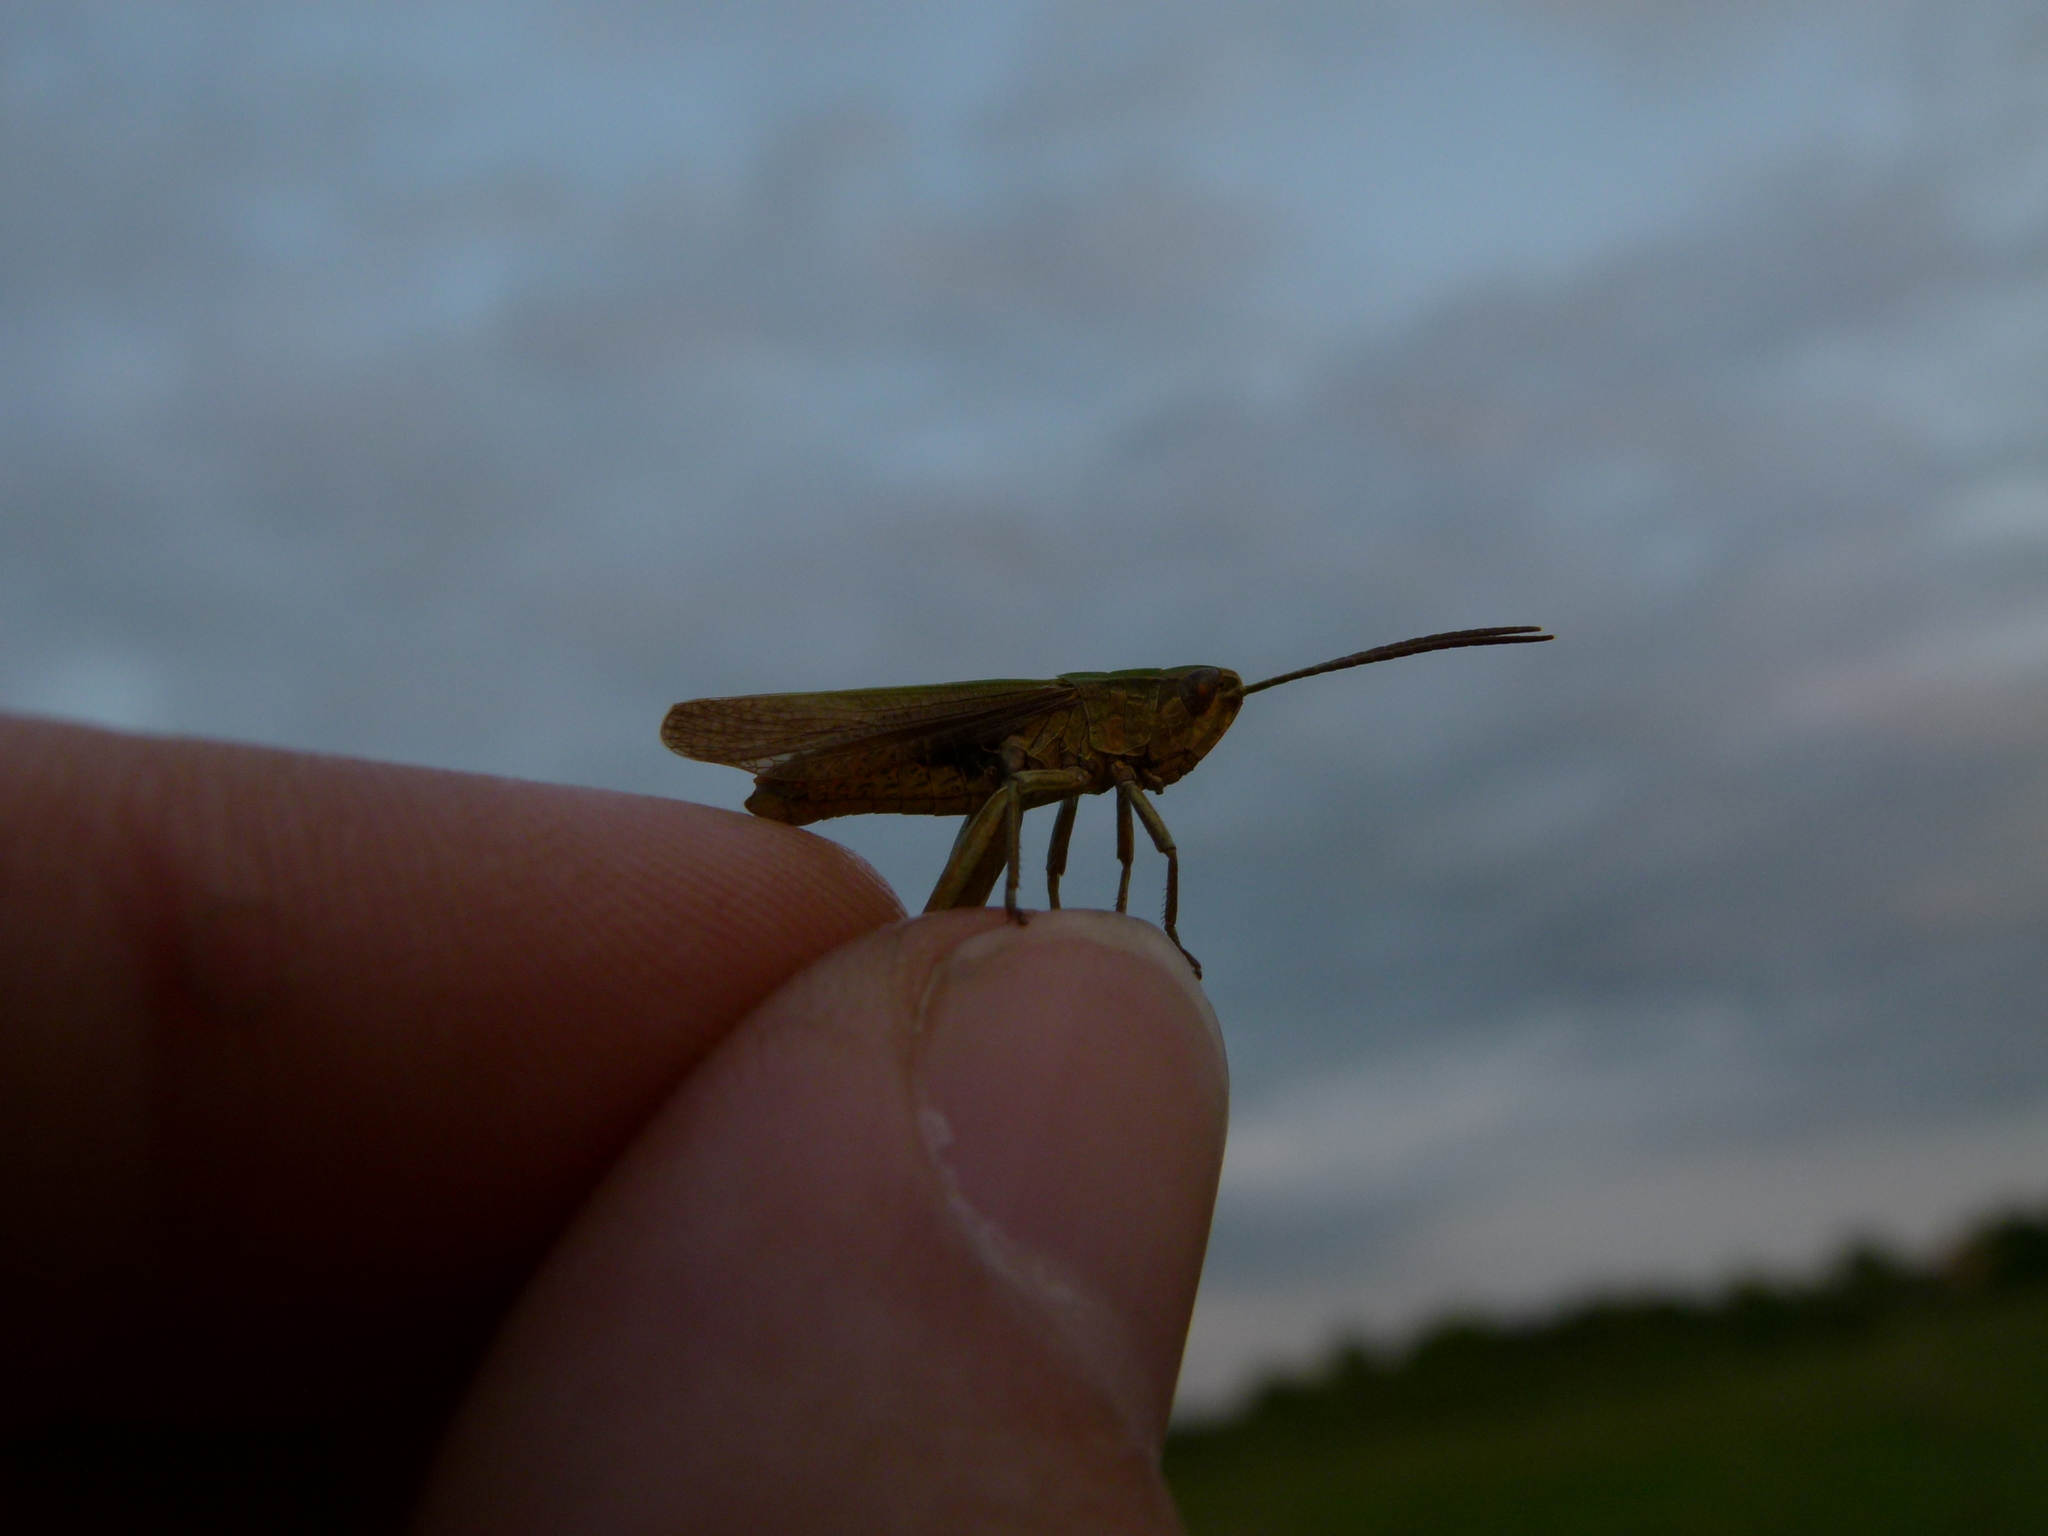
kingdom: Animalia
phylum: Arthropoda
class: Insecta
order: Orthoptera
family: Acrididae
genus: Chorthippus
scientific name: Chorthippus dorsatus
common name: Steppe grasshopper
